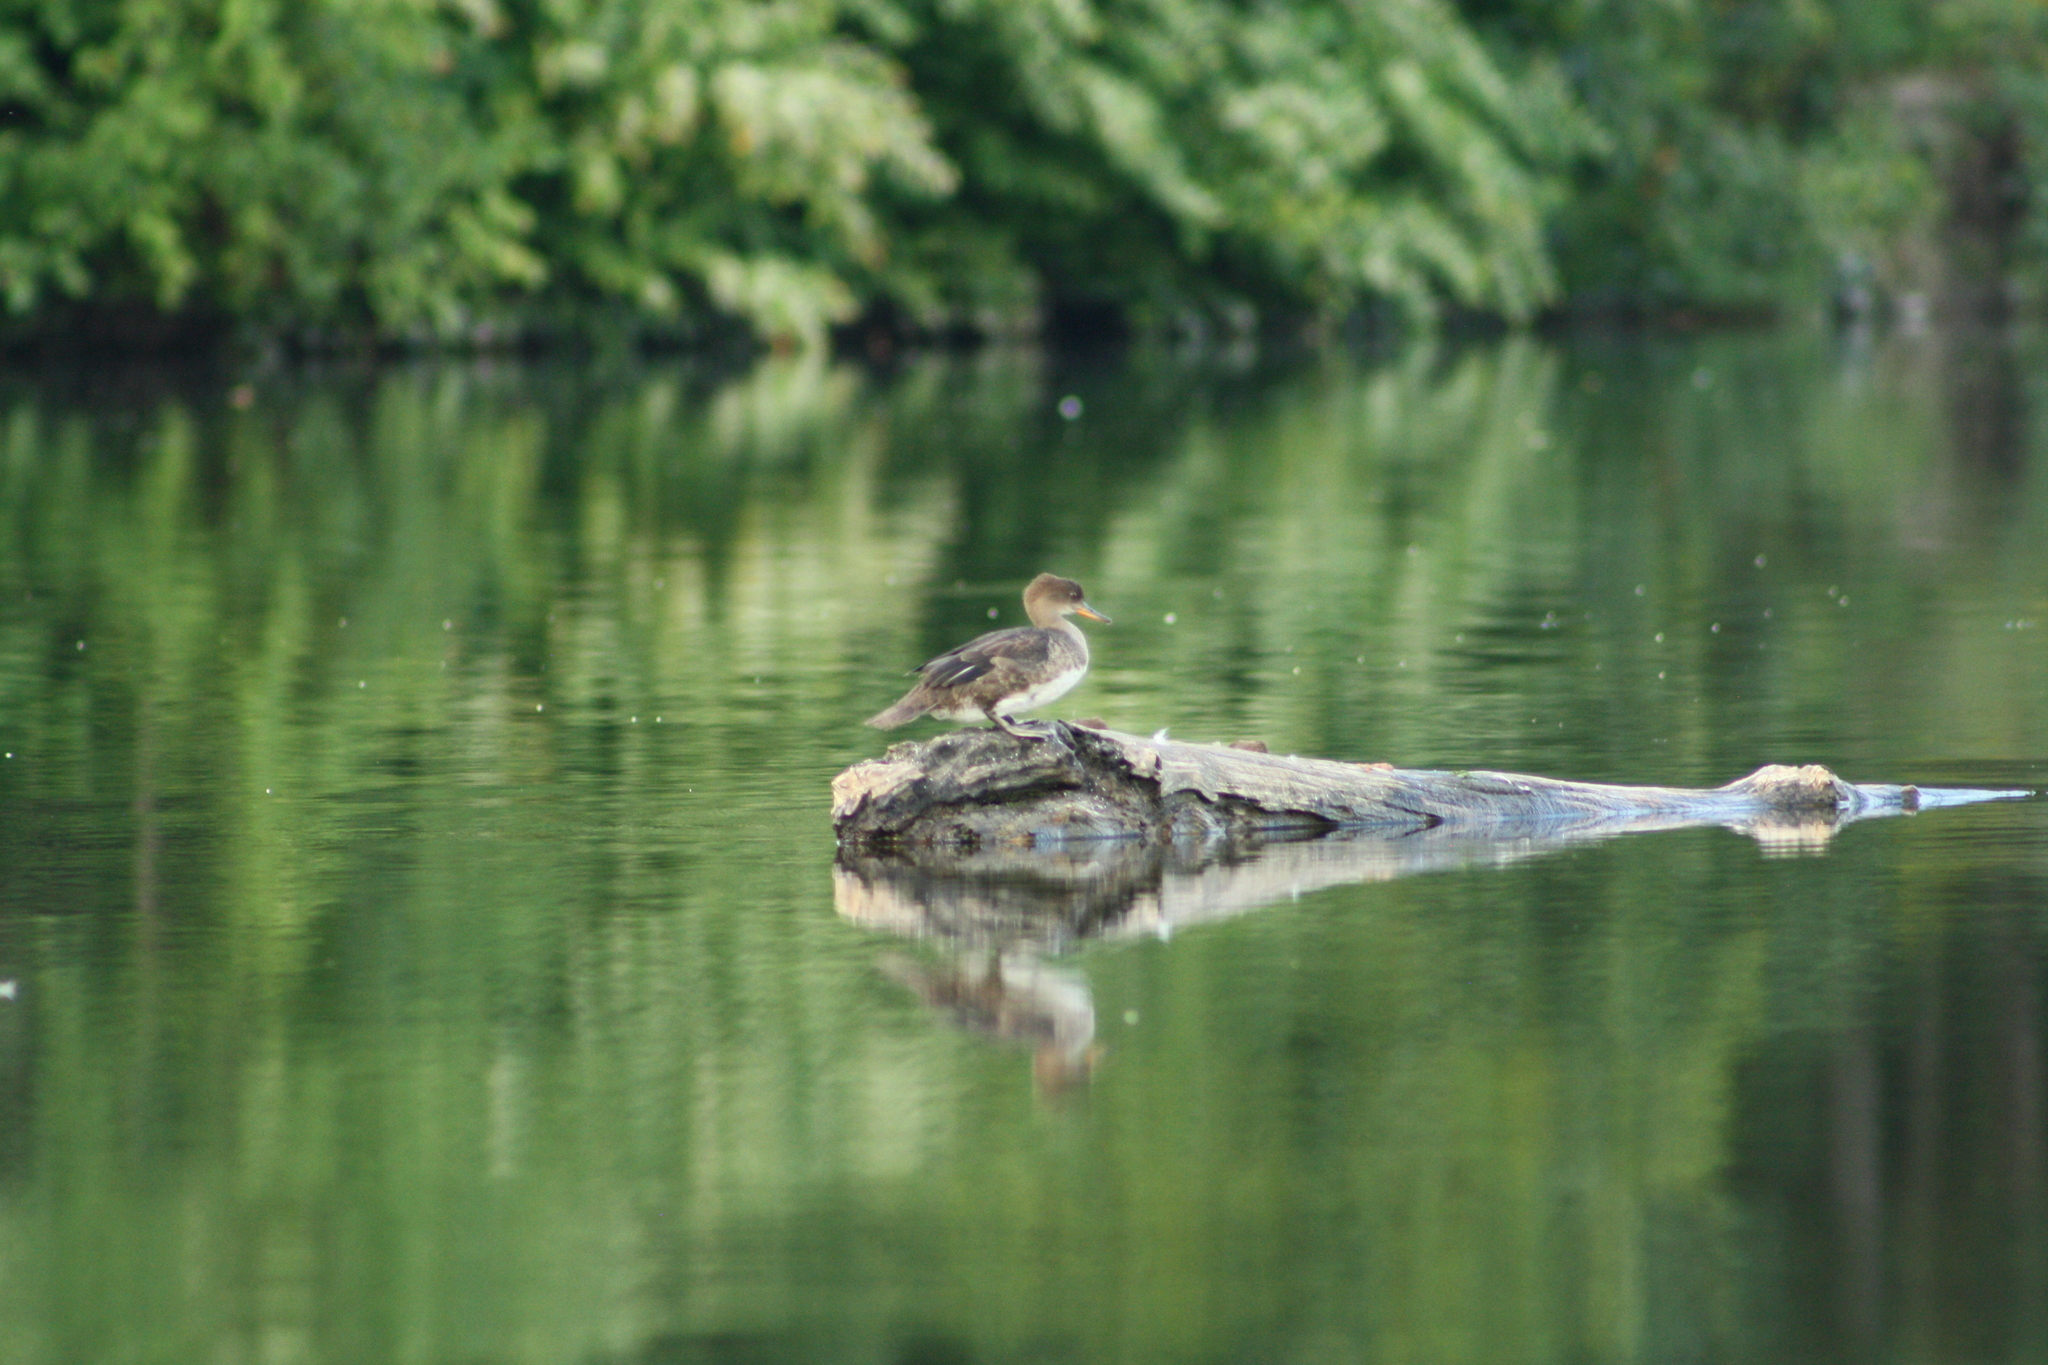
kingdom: Animalia
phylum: Chordata
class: Aves
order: Anseriformes
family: Anatidae
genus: Lophodytes
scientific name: Lophodytes cucullatus
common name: Hooded merganser
